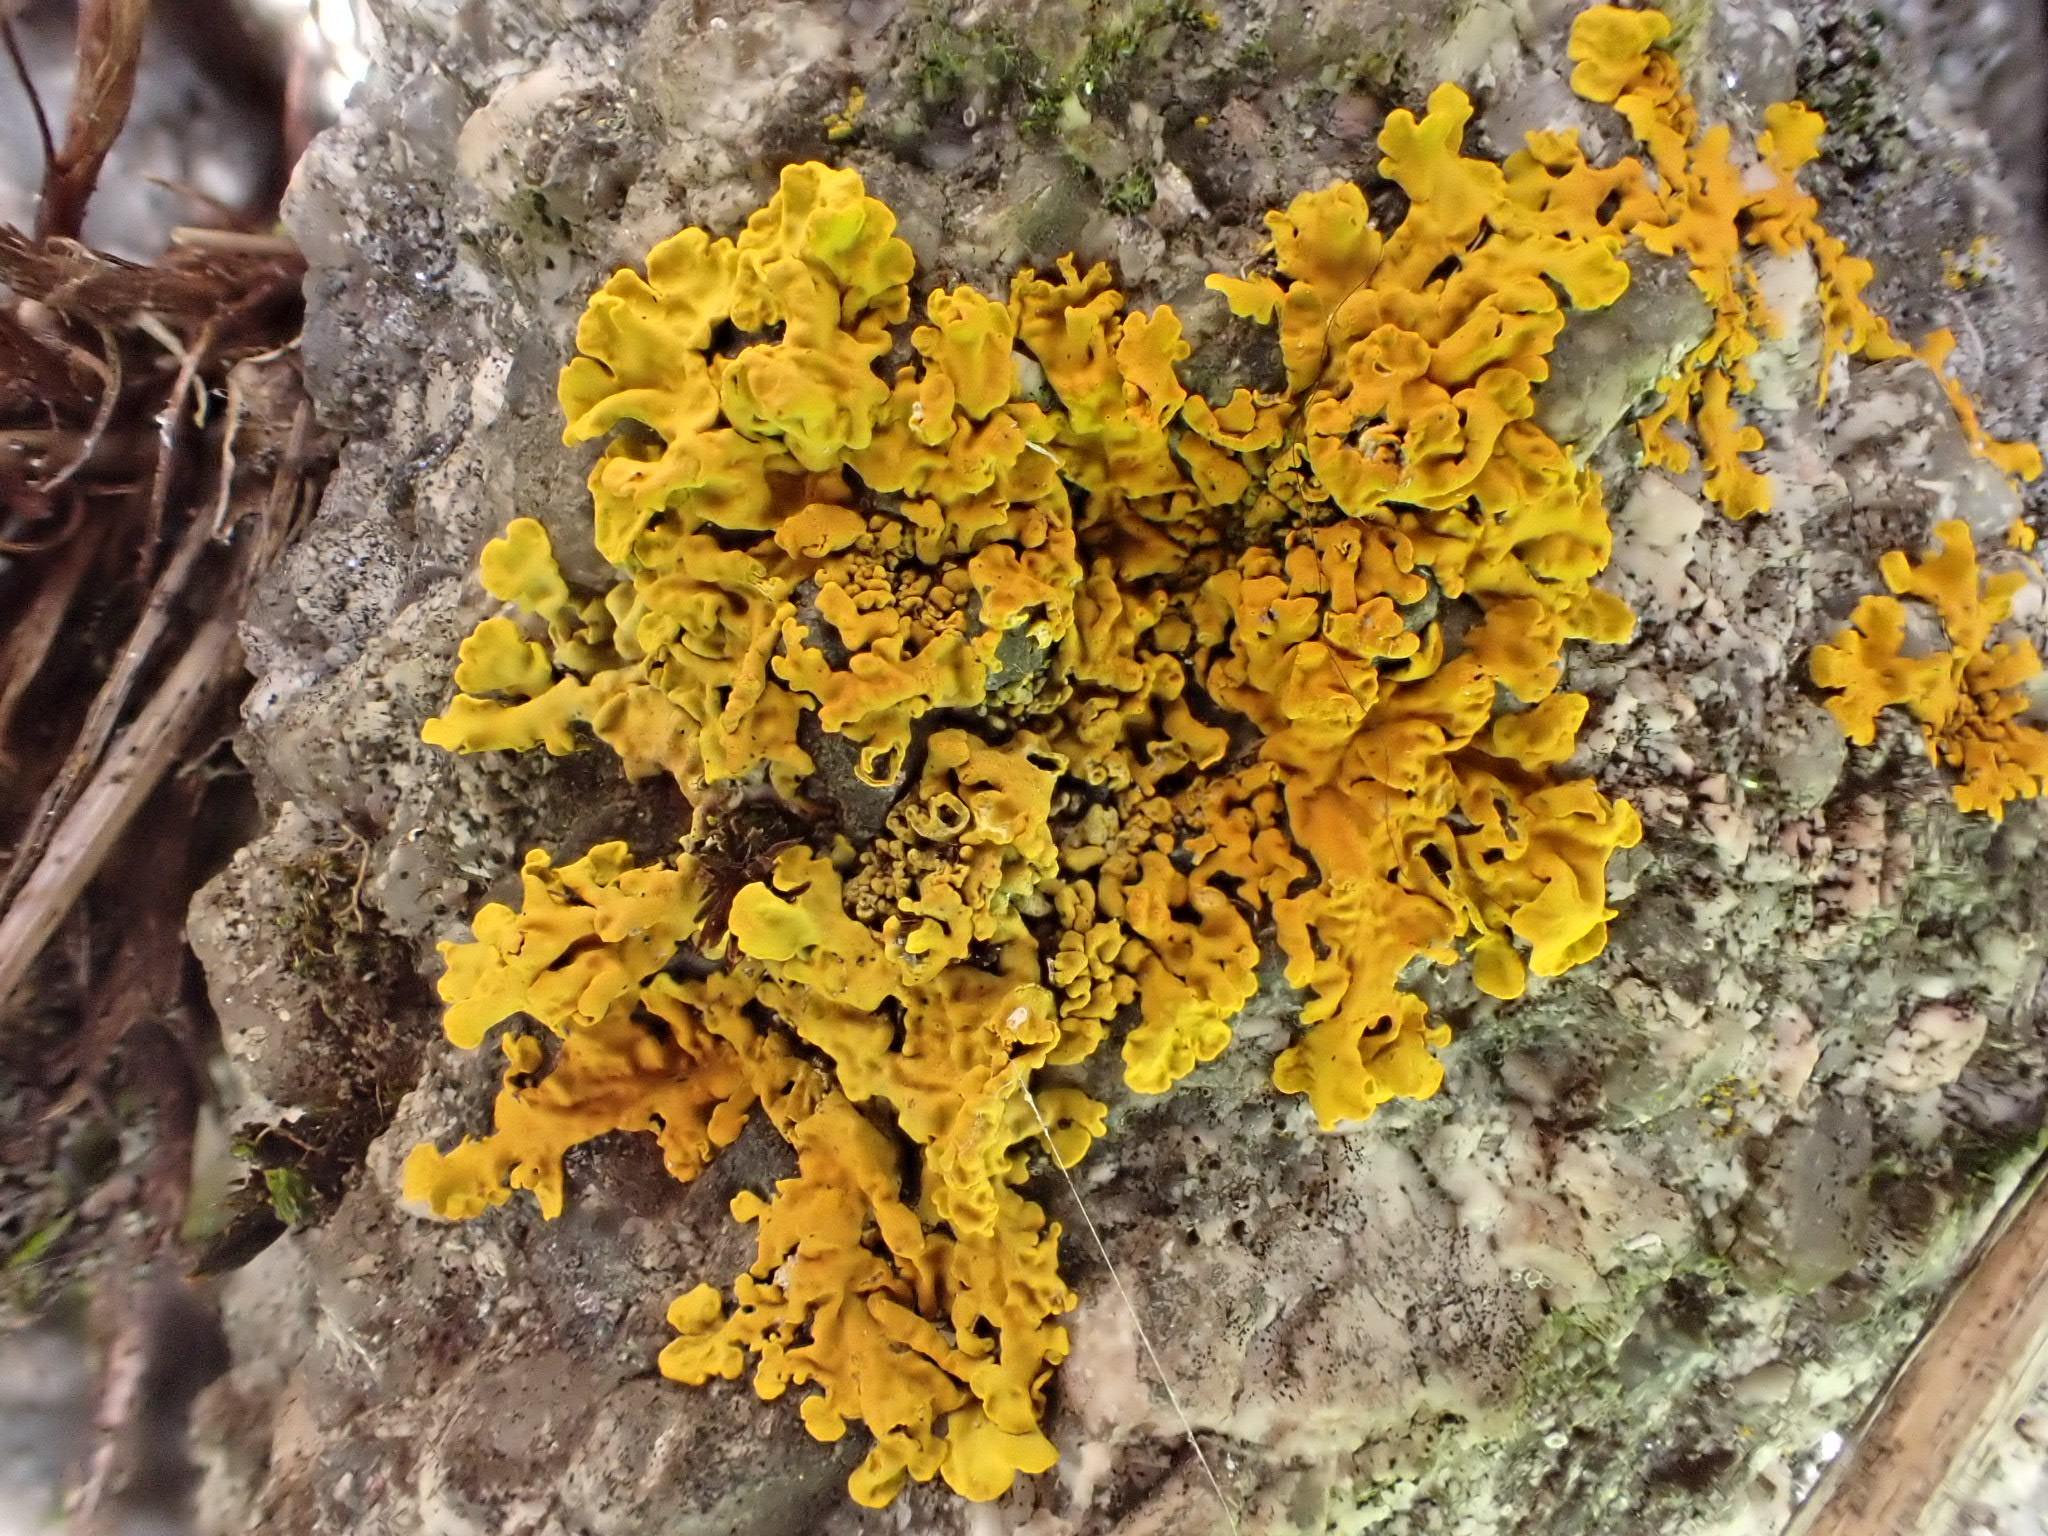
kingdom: Fungi
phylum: Ascomycota
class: Lecanoromycetes
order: Teloschistales
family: Teloschistaceae
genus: Xanthoria
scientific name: Xanthoria parietina
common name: Common orange lichen
